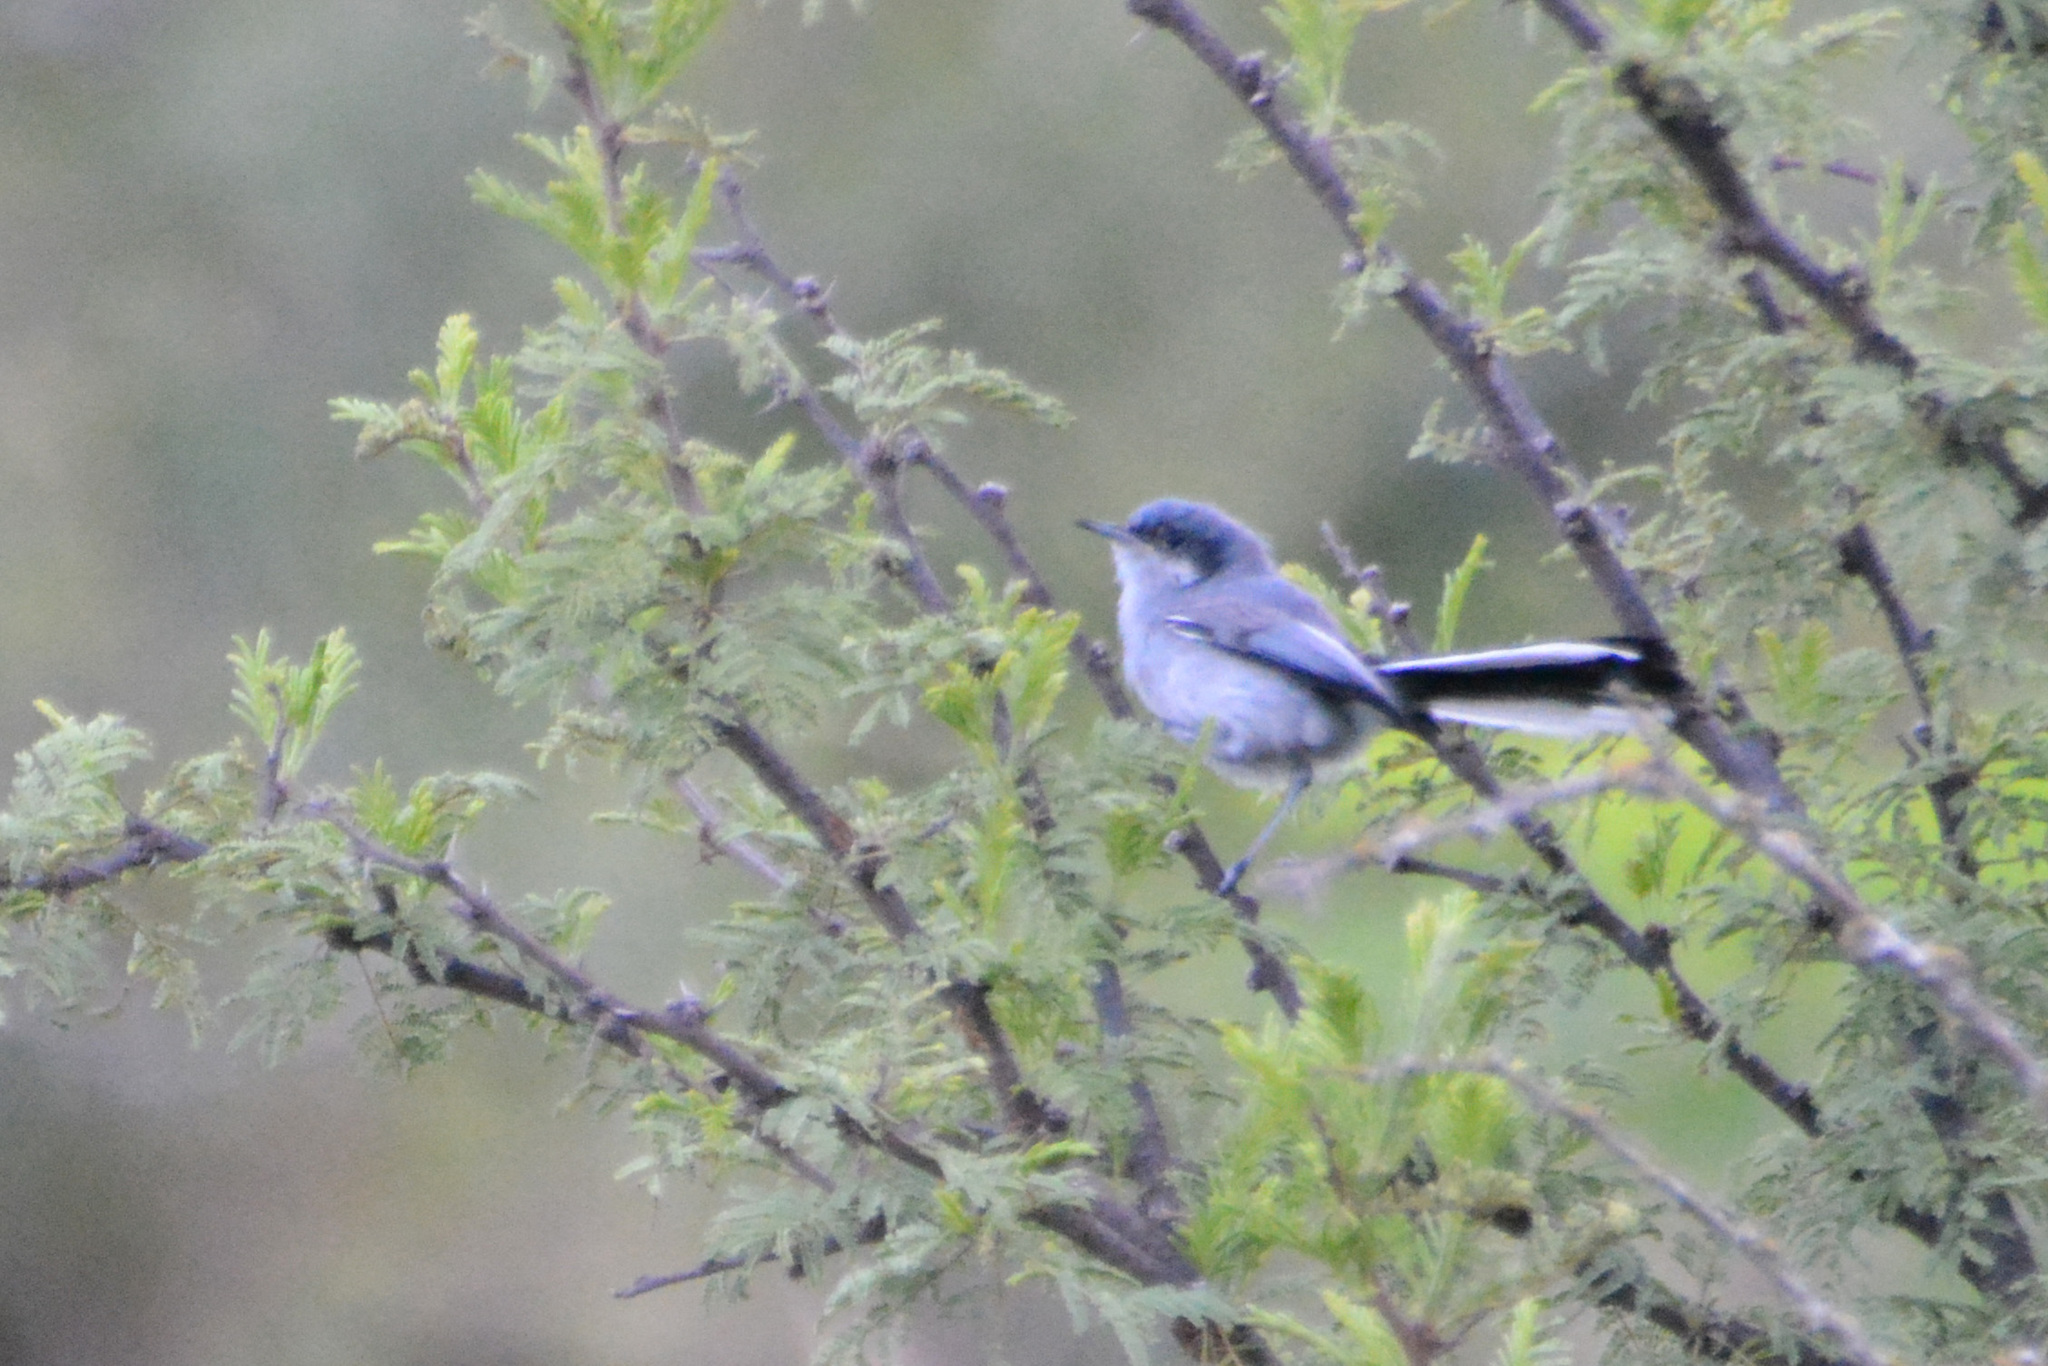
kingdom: Animalia
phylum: Chordata
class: Aves
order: Passeriformes
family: Polioptilidae
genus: Polioptila
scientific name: Polioptila dumicola
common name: Masked gnatcatcher
